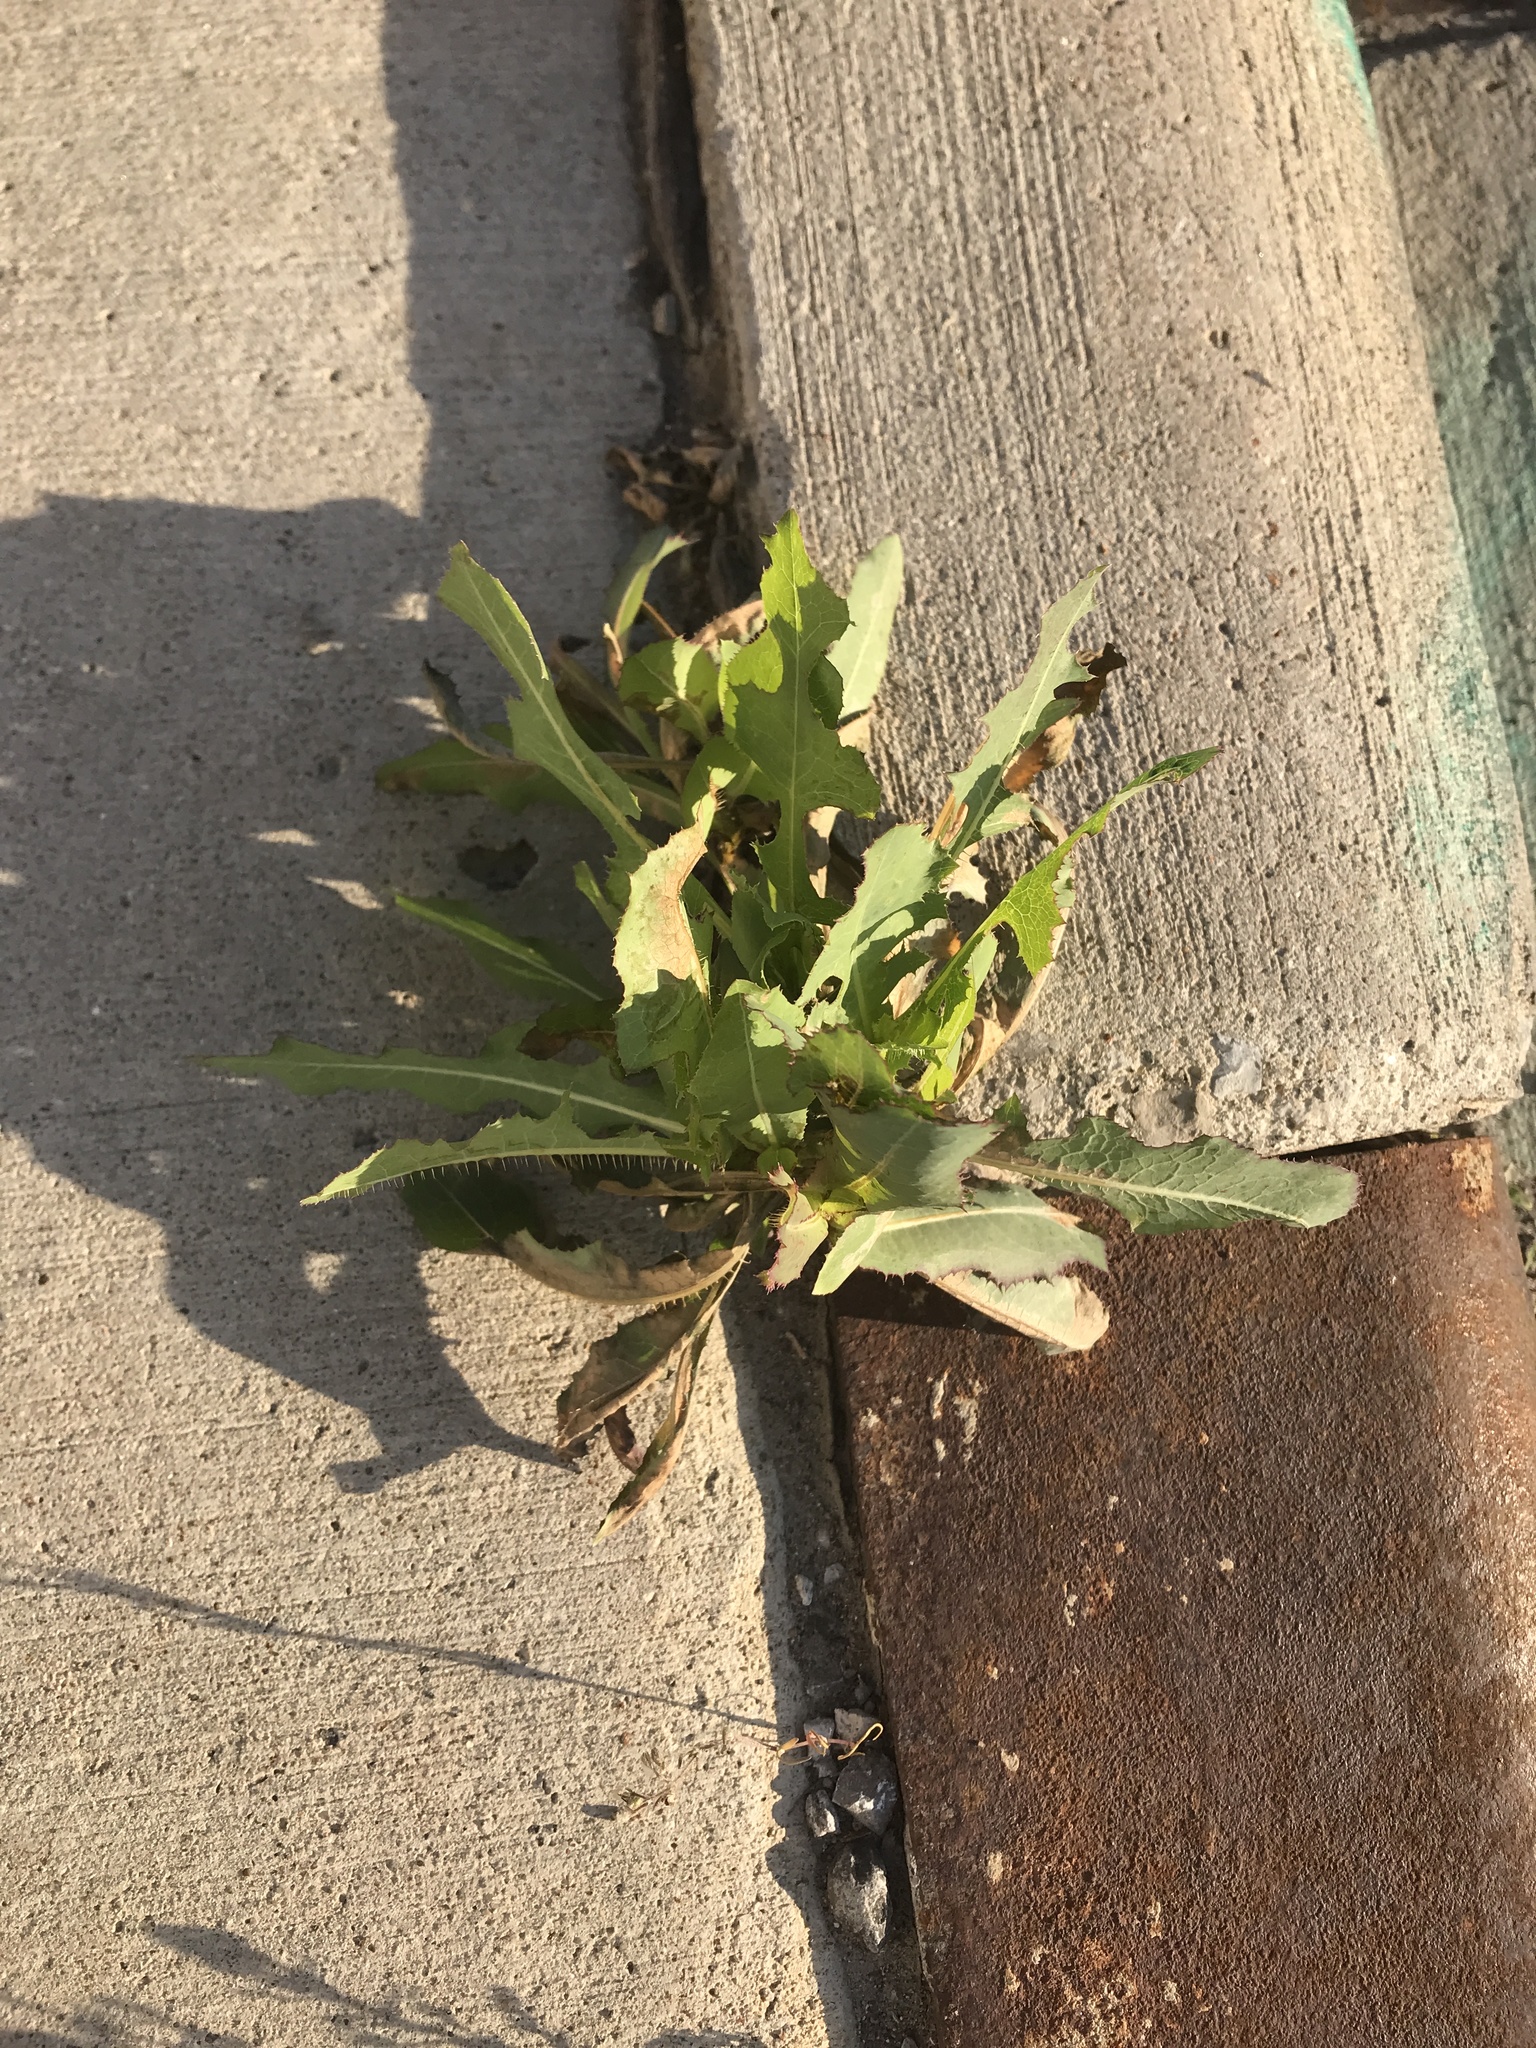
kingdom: Plantae
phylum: Tracheophyta
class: Magnoliopsida
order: Asterales
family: Asteraceae
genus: Lactuca
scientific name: Lactuca serriola
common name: Prickly lettuce
